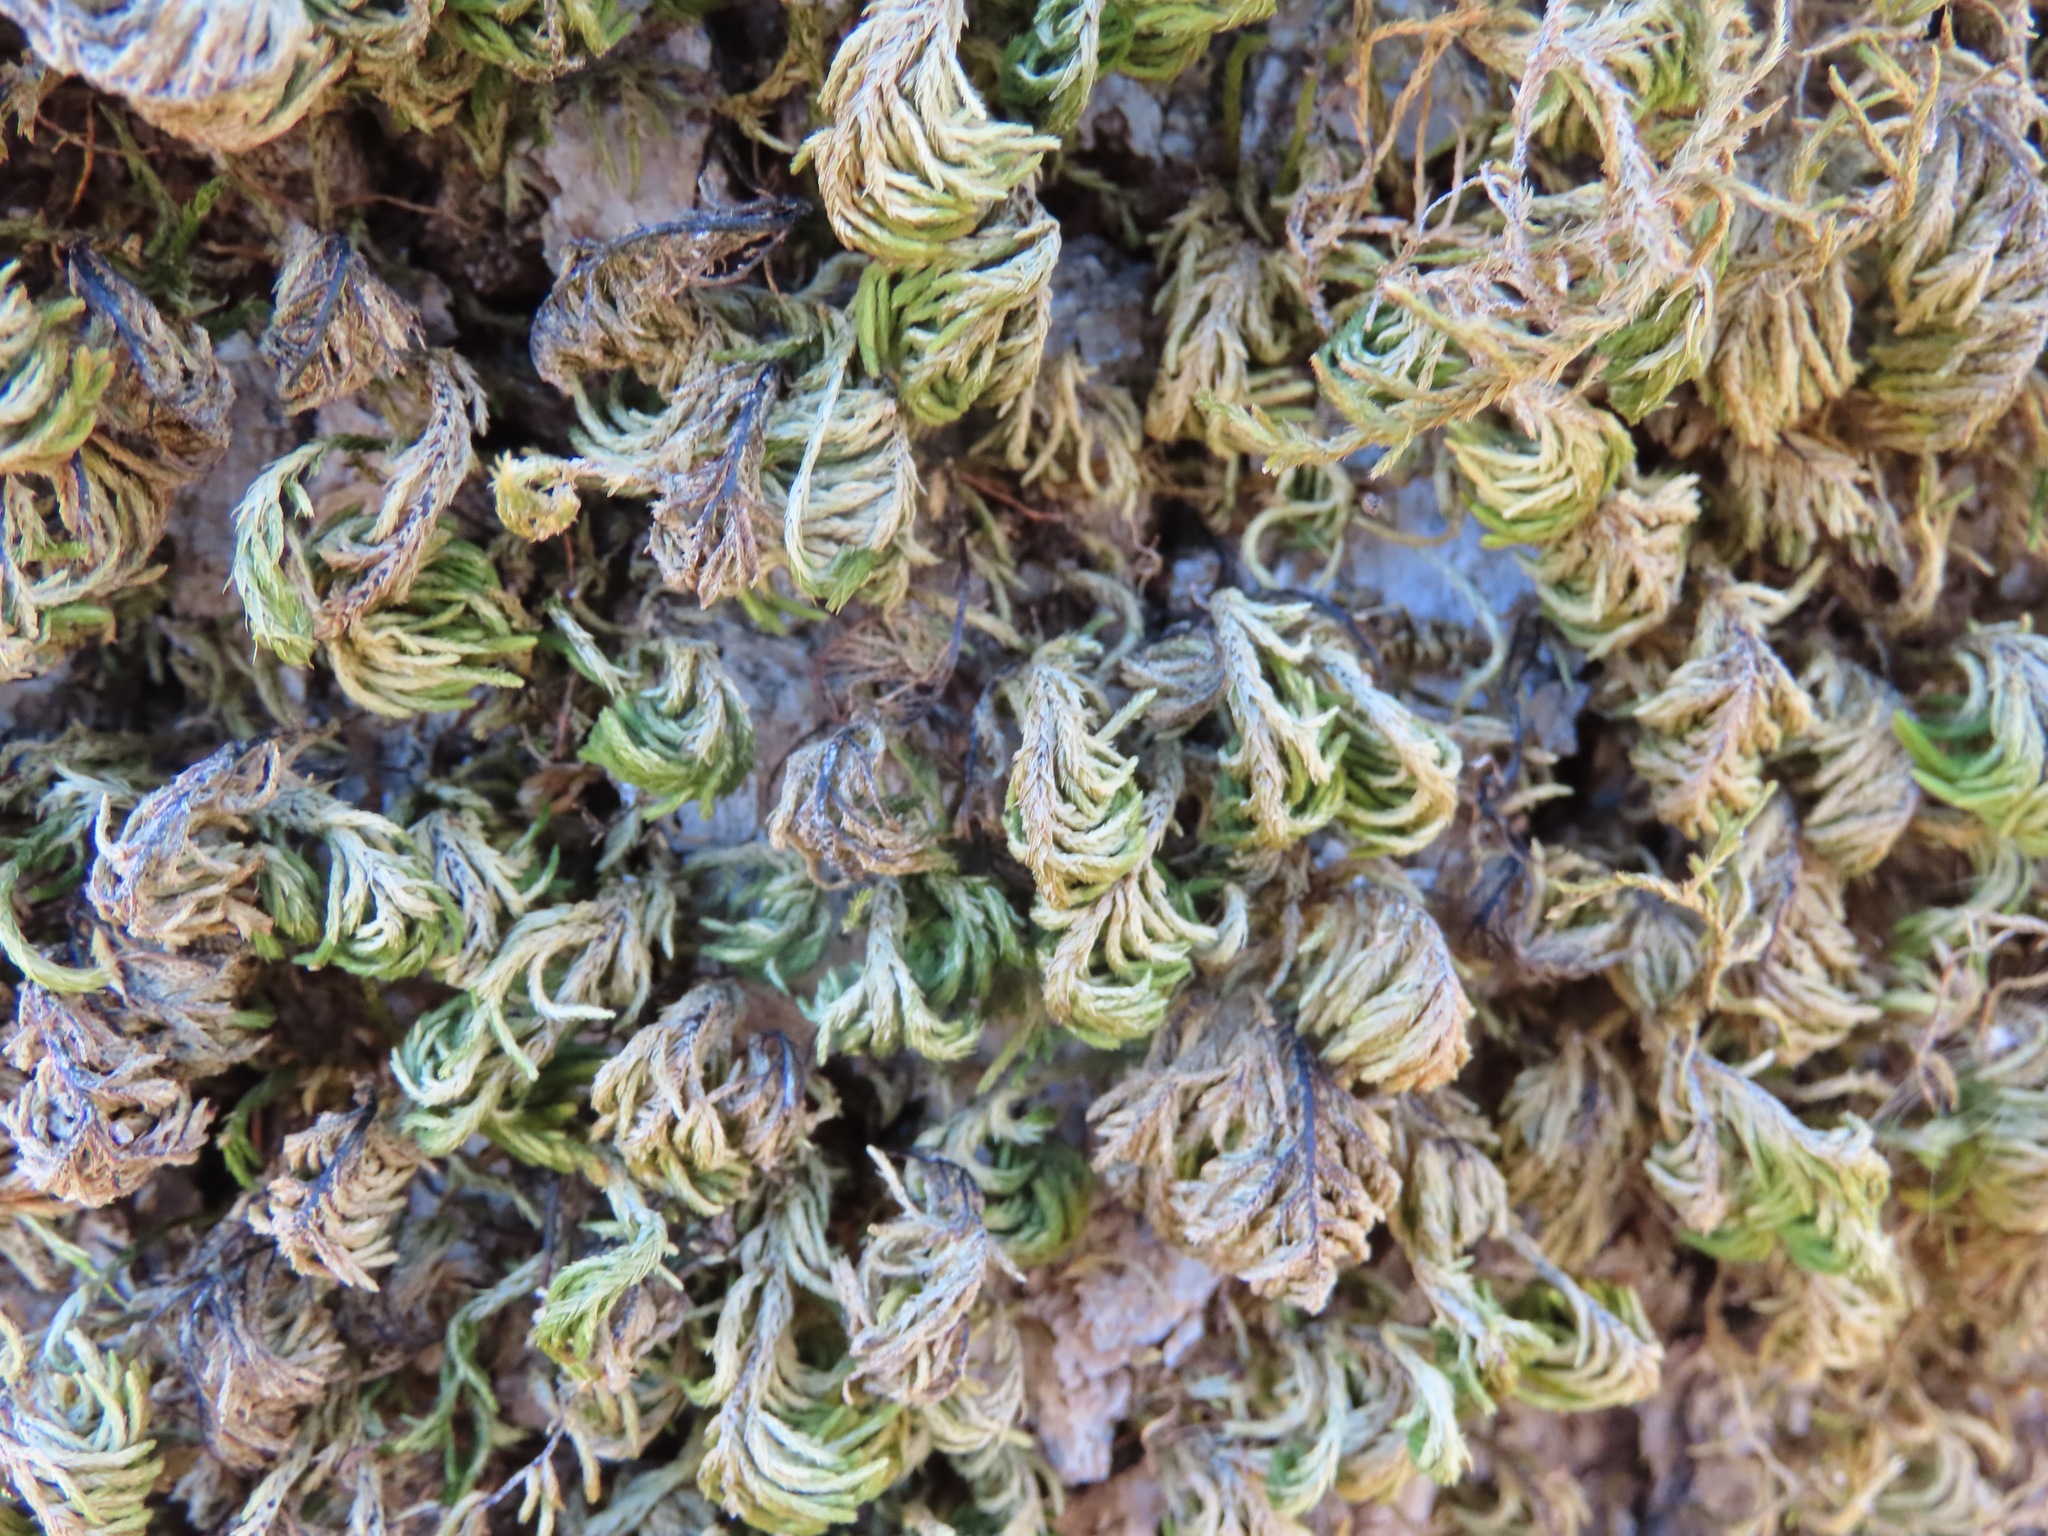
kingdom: Plantae
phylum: Bryophyta
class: Bryopsida
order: Hypnales
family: Cryphaeaceae
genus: Dendroalsia
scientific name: Dendroalsia abietina
